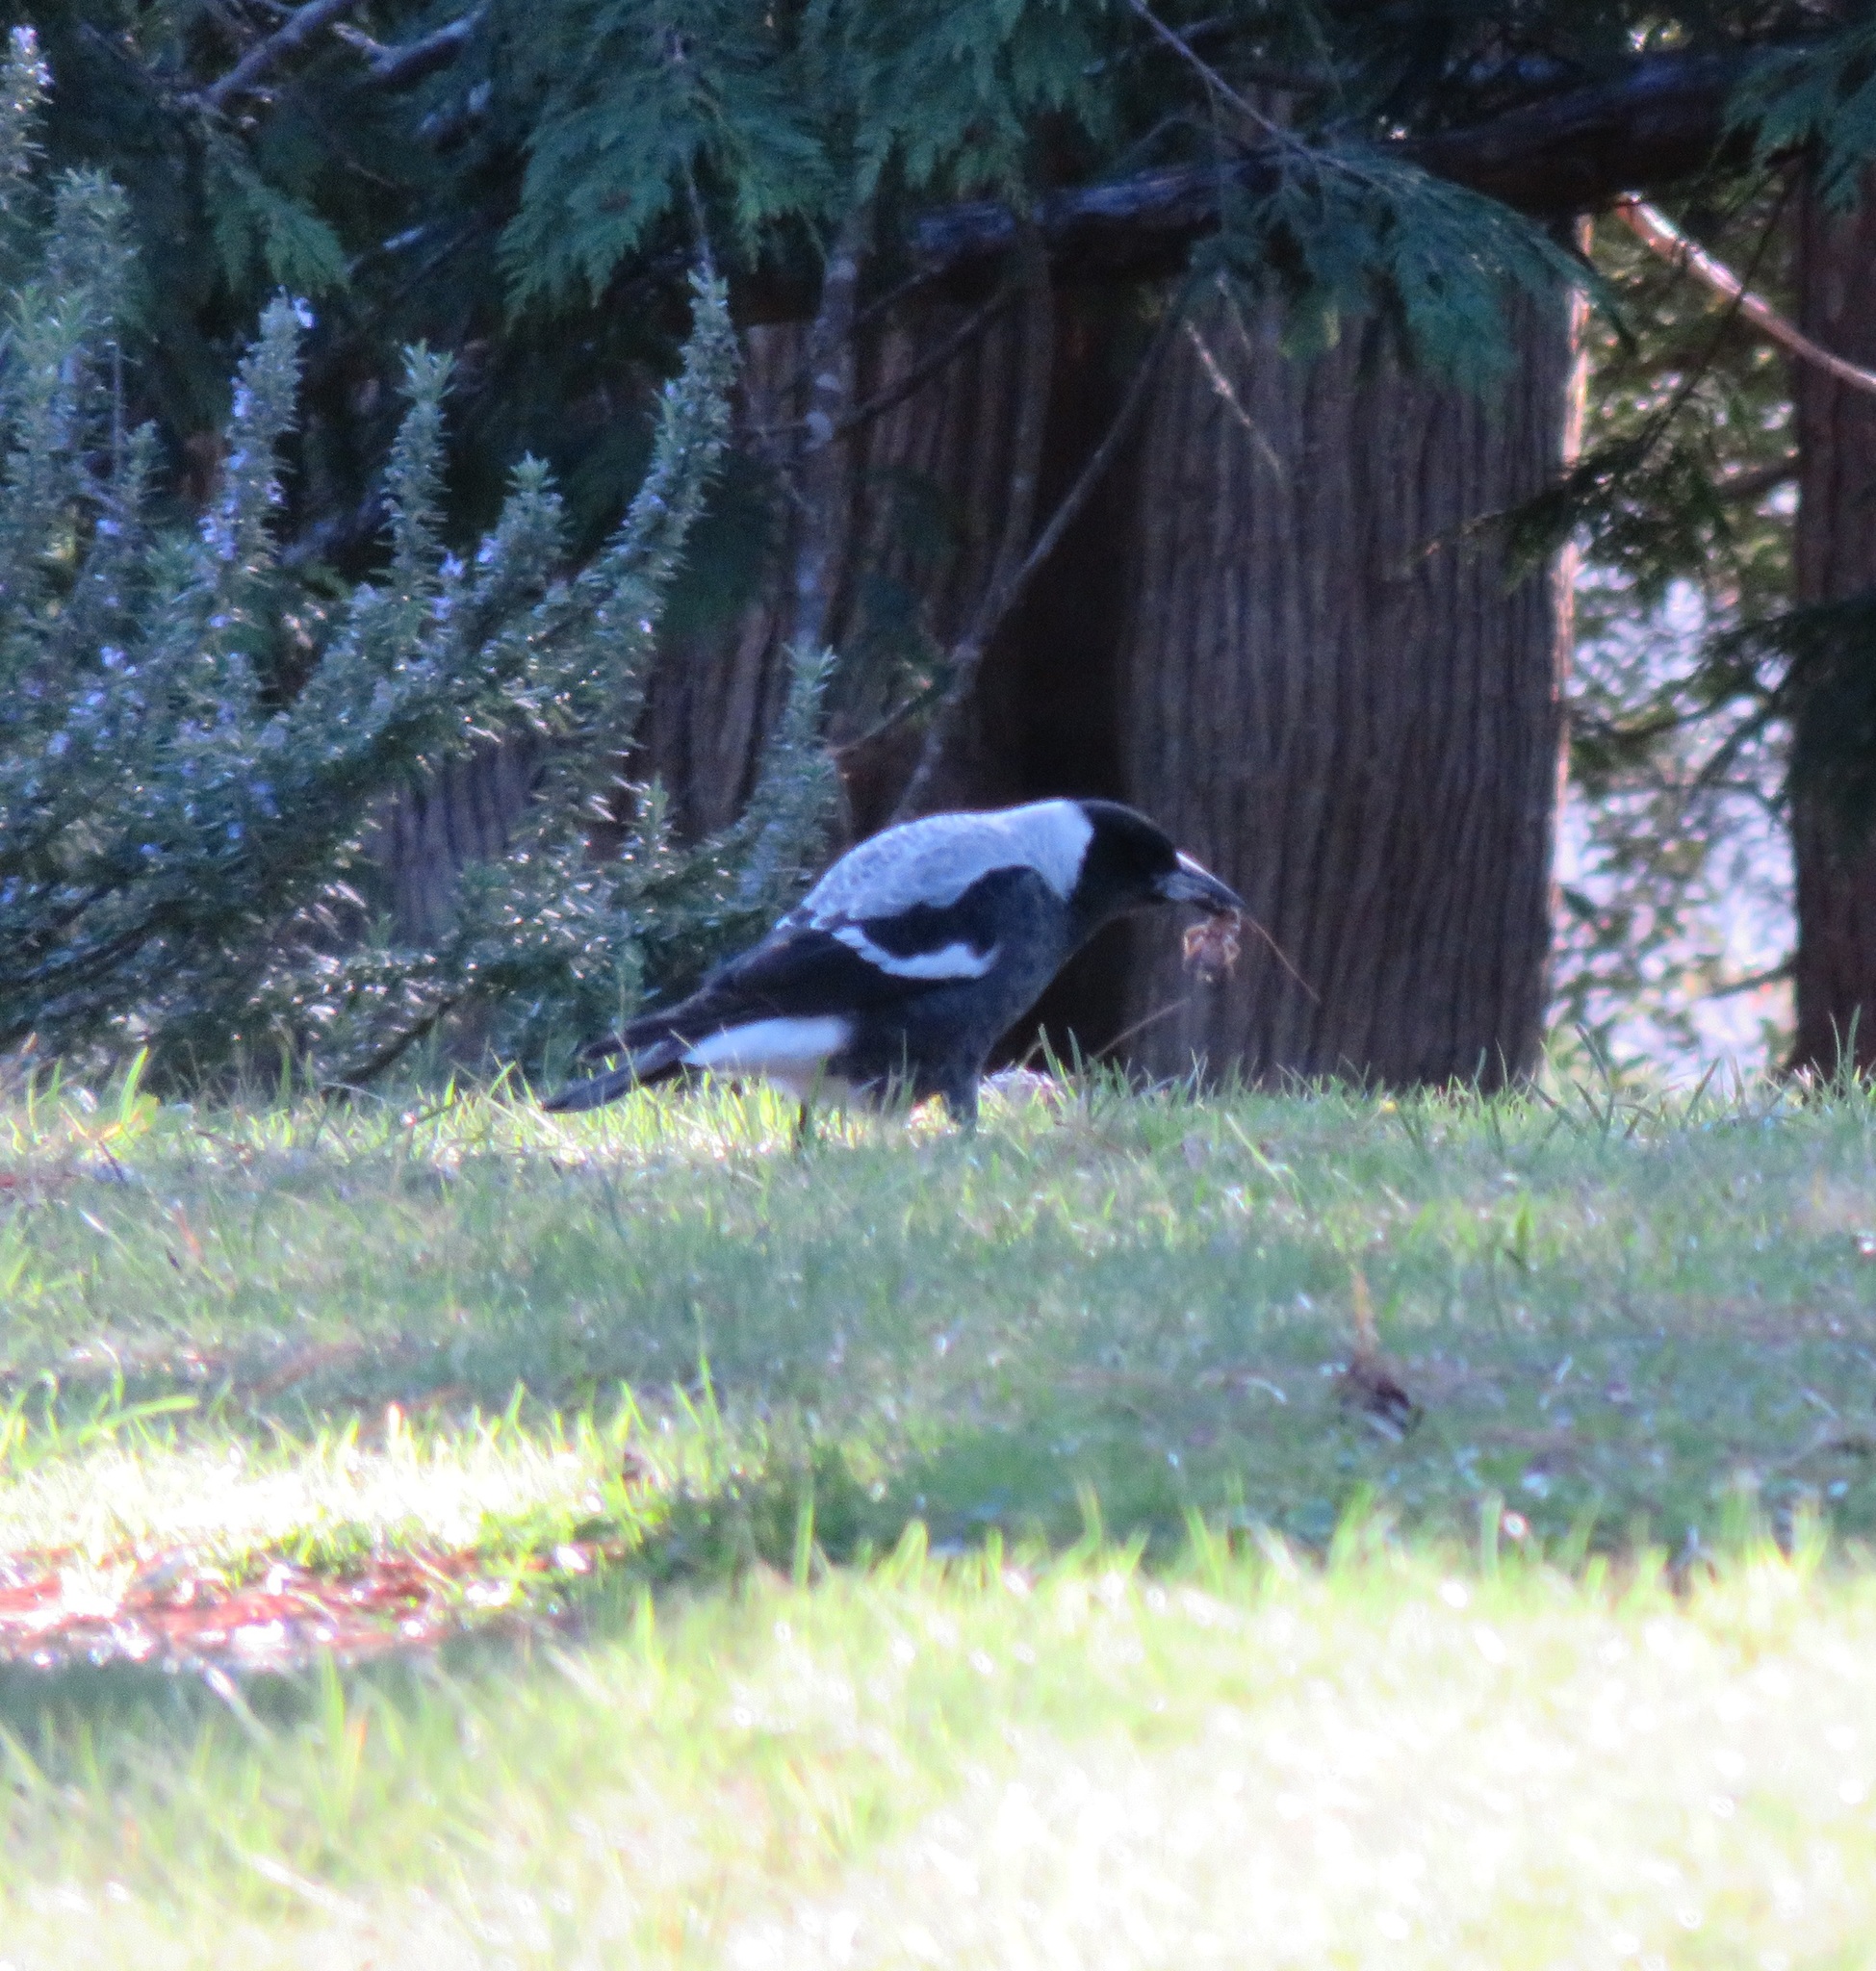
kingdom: Animalia
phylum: Chordata
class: Aves
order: Passeriformes
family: Cracticidae
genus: Gymnorhina
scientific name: Gymnorhina tibicen
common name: Australian magpie
